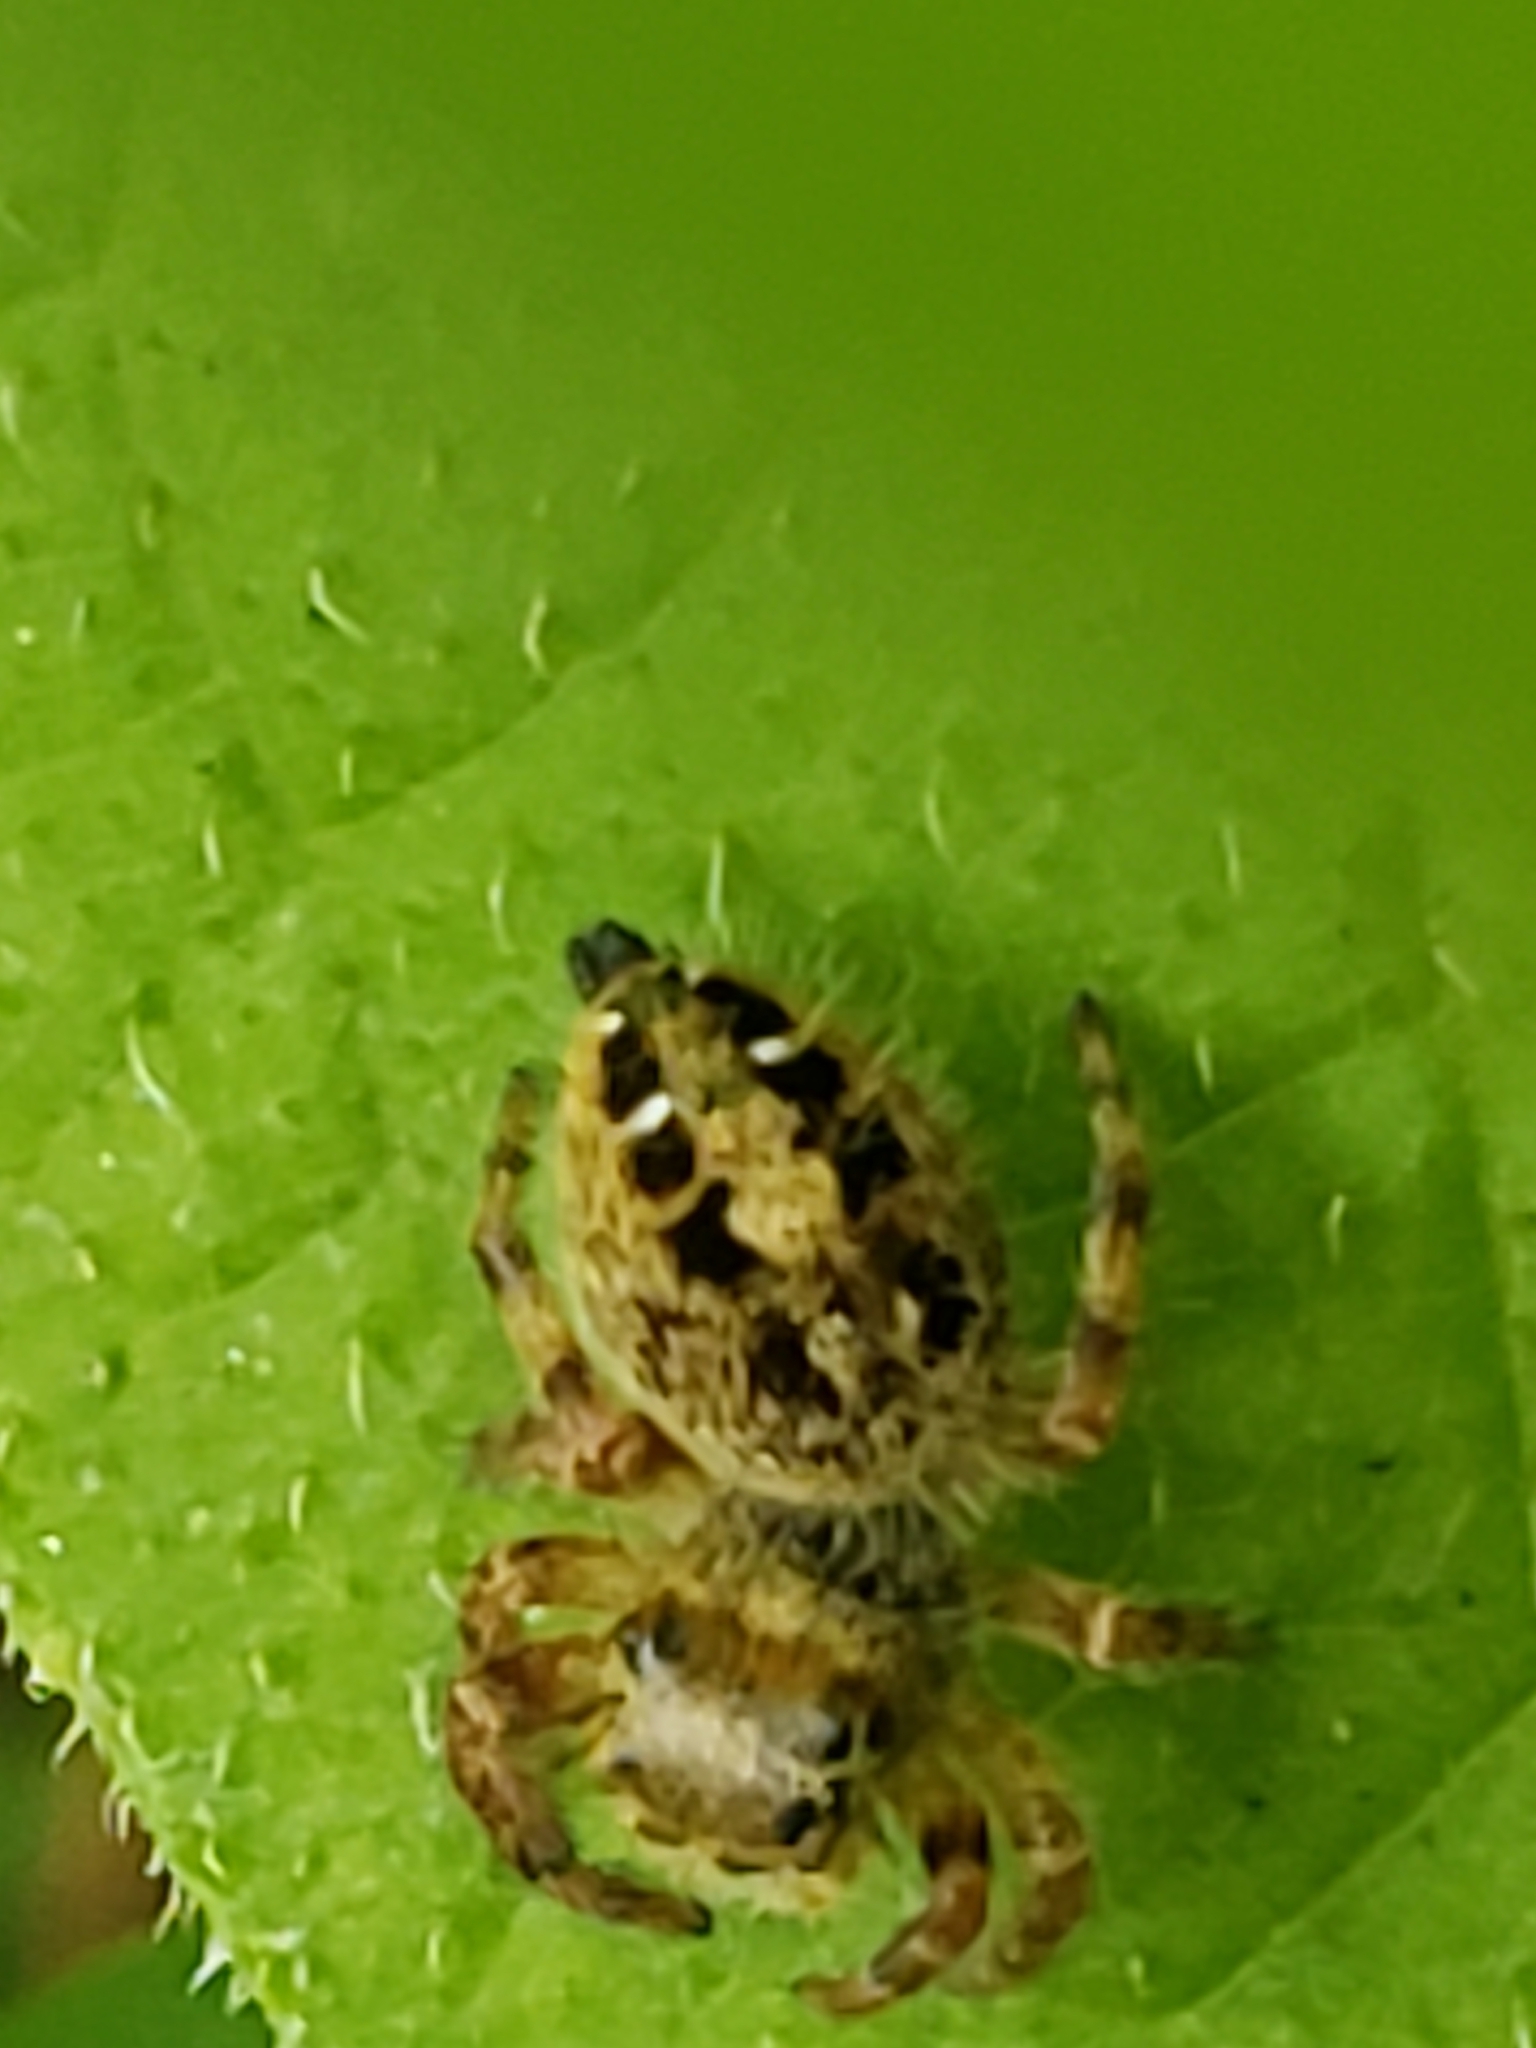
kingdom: Animalia
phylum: Arthropoda
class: Arachnida
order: Araneae
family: Salticidae
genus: Phidippus
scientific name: Phidippus princeps
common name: Grayish jumping spider
